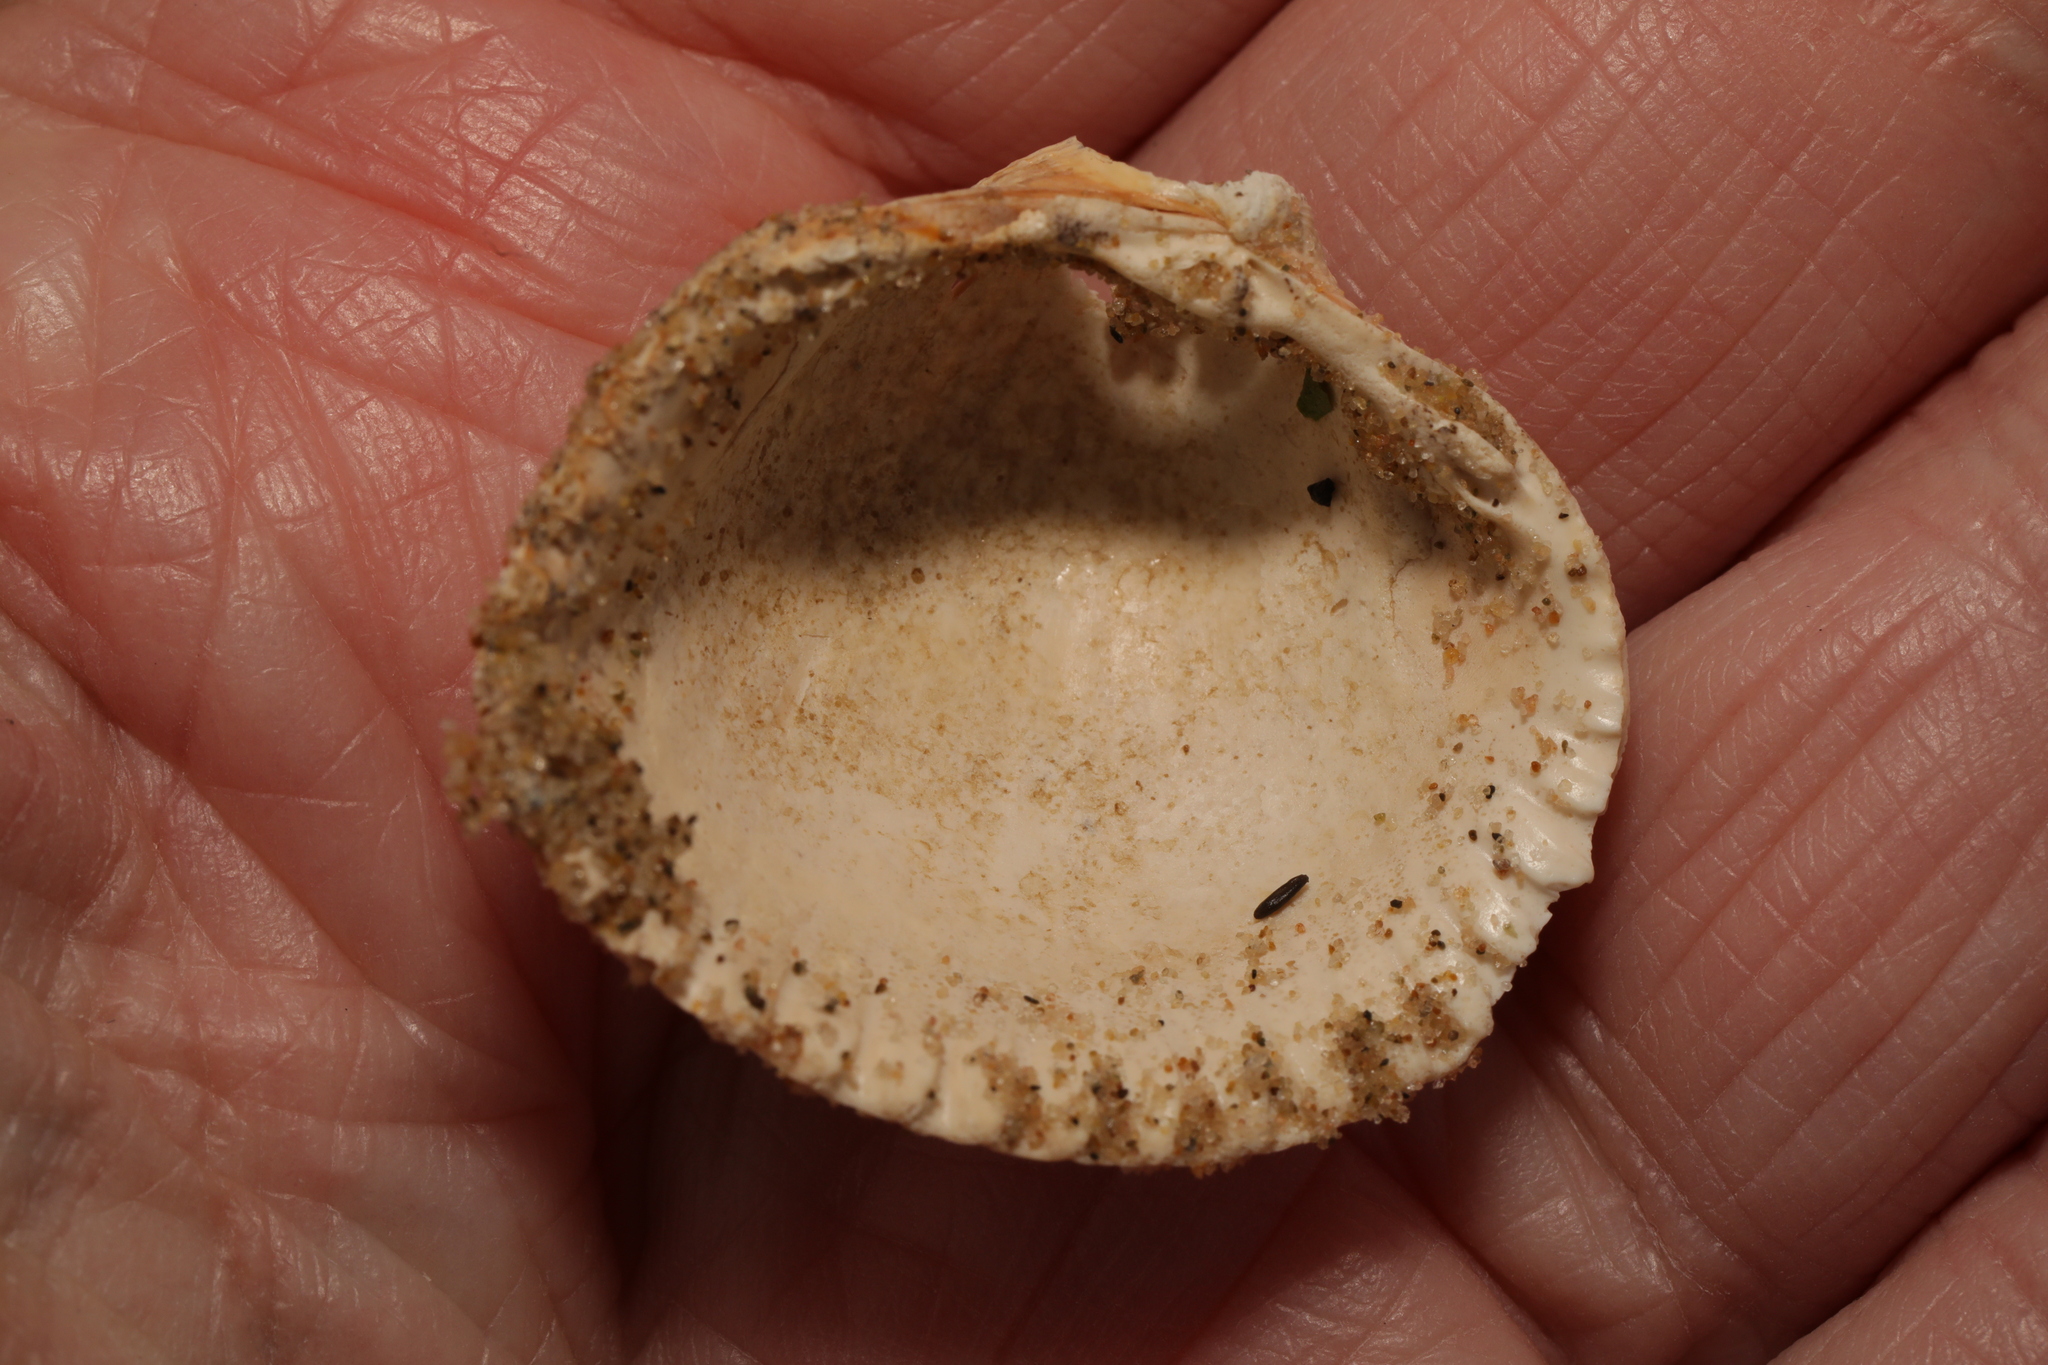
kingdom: Animalia
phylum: Mollusca
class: Bivalvia
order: Cardiida
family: Cardiidae
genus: Cerastoderma
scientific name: Cerastoderma edule
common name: Common cockle
